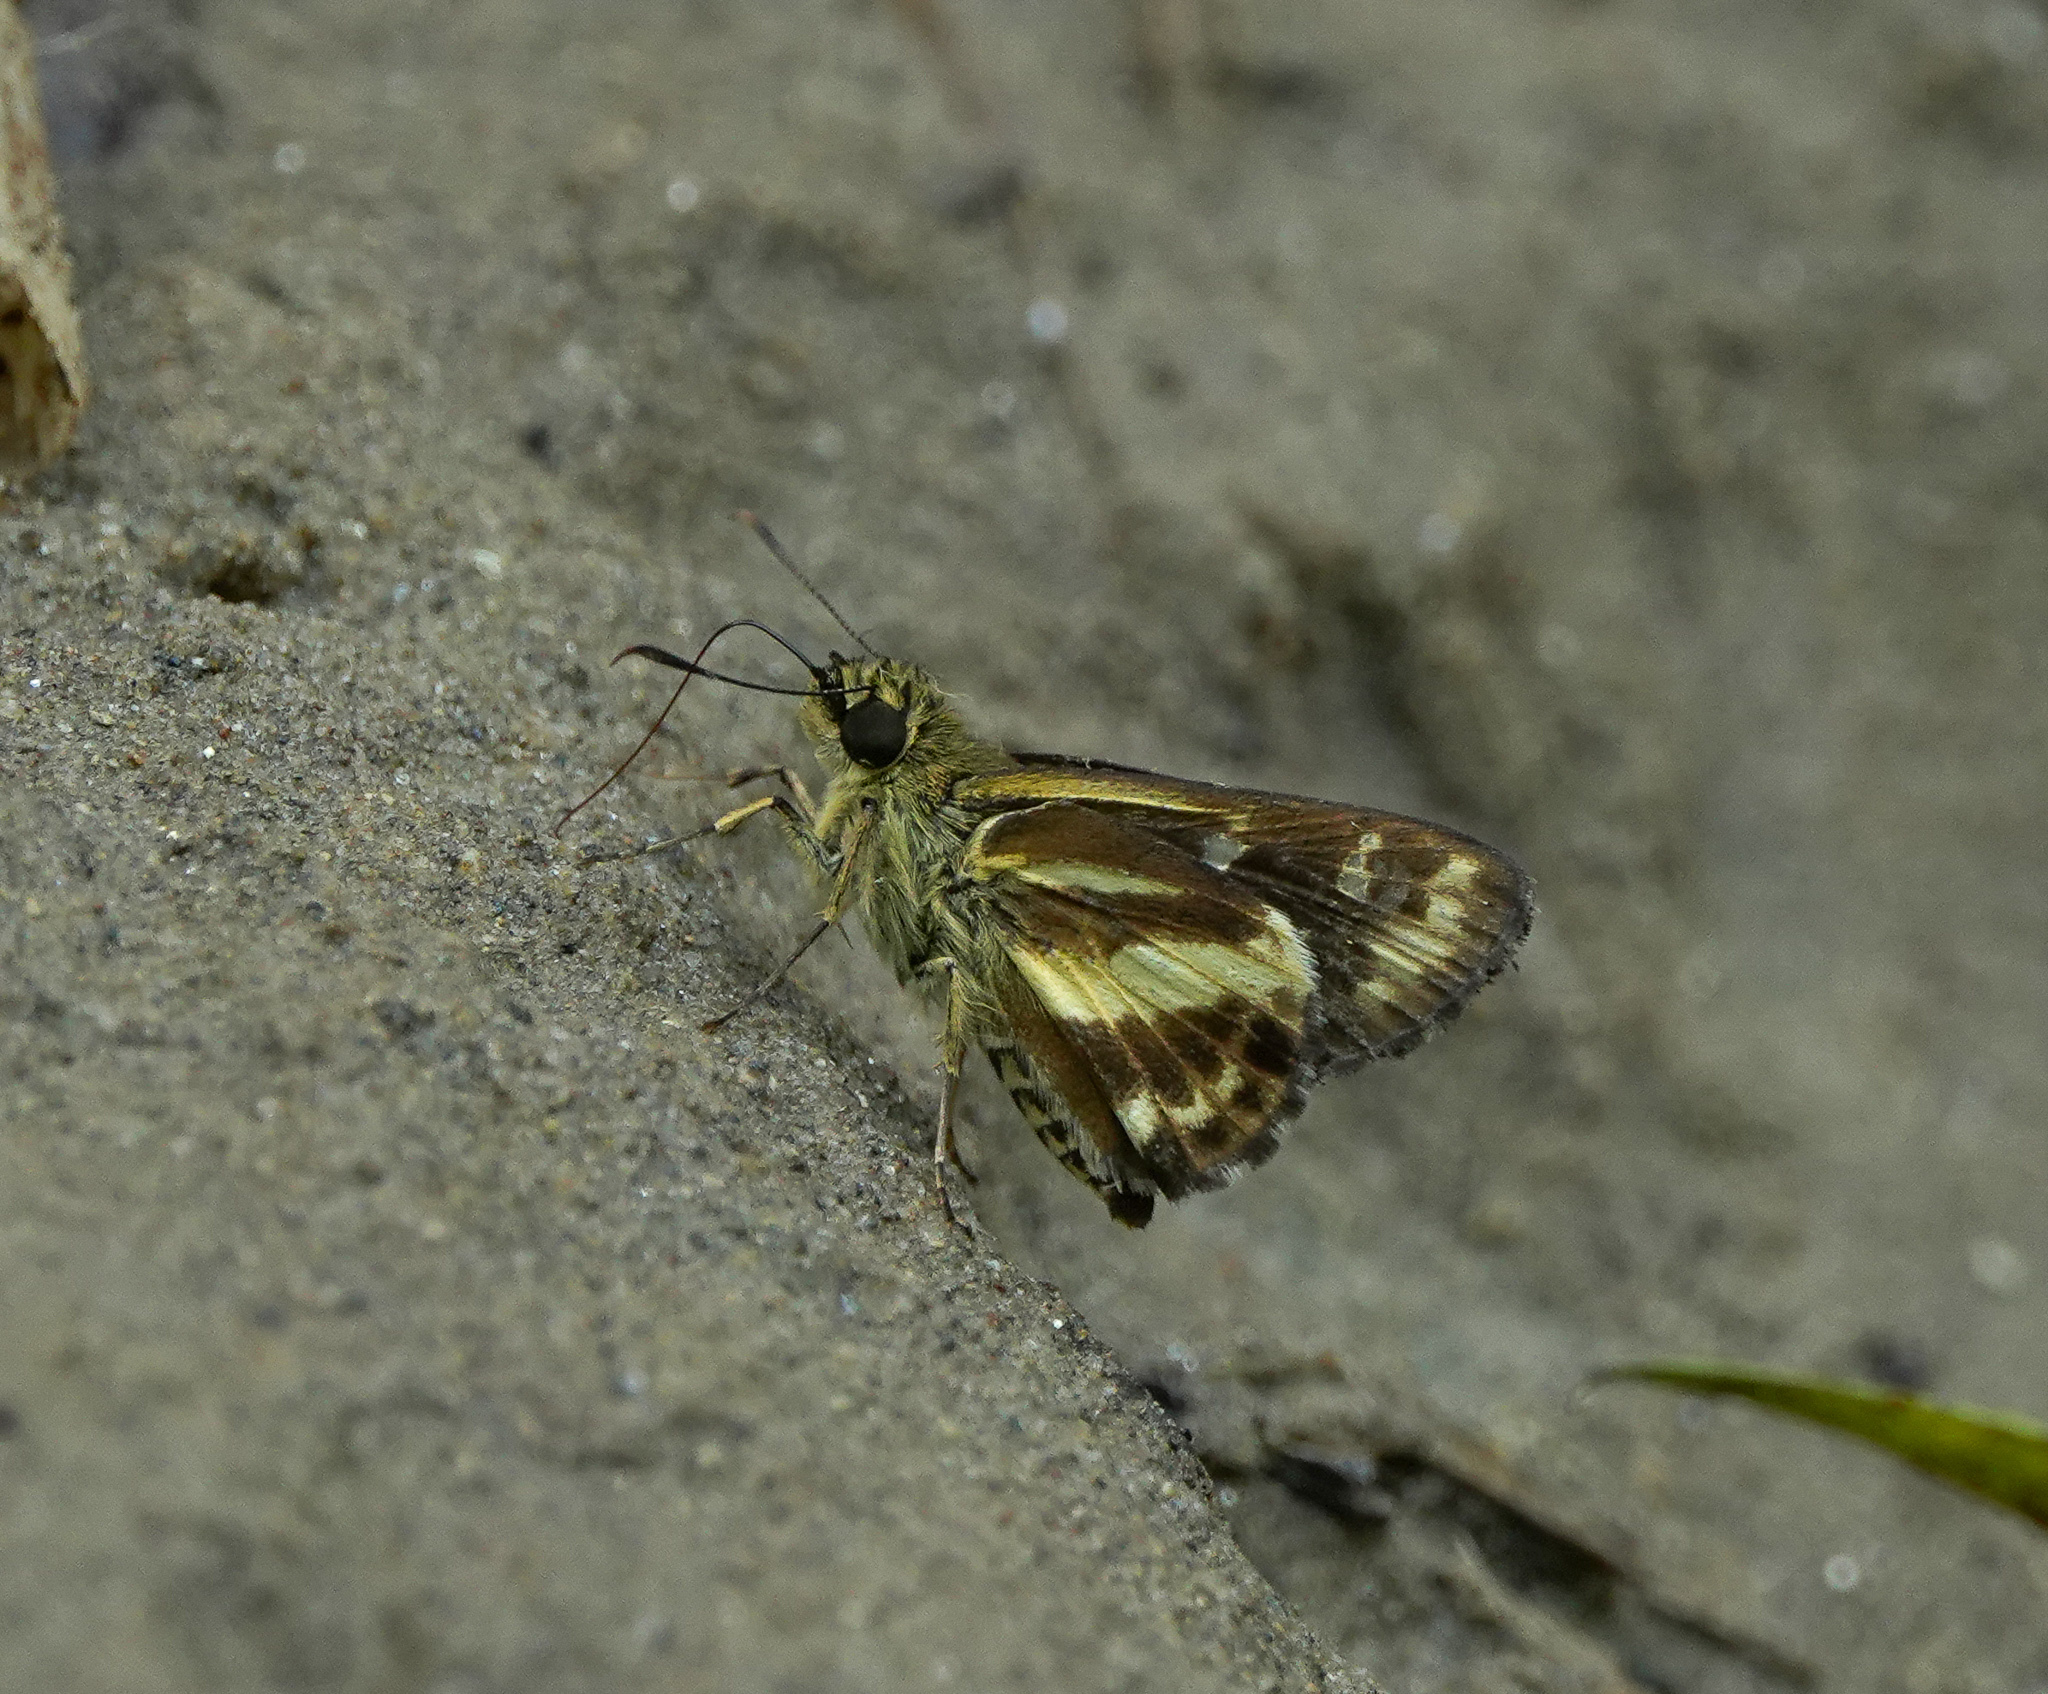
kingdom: Animalia
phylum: Arthropoda
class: Insecta
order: Lepidoptera
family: Hesperiidae
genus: Sebastonyma
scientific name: Sebastonyma dolopia
